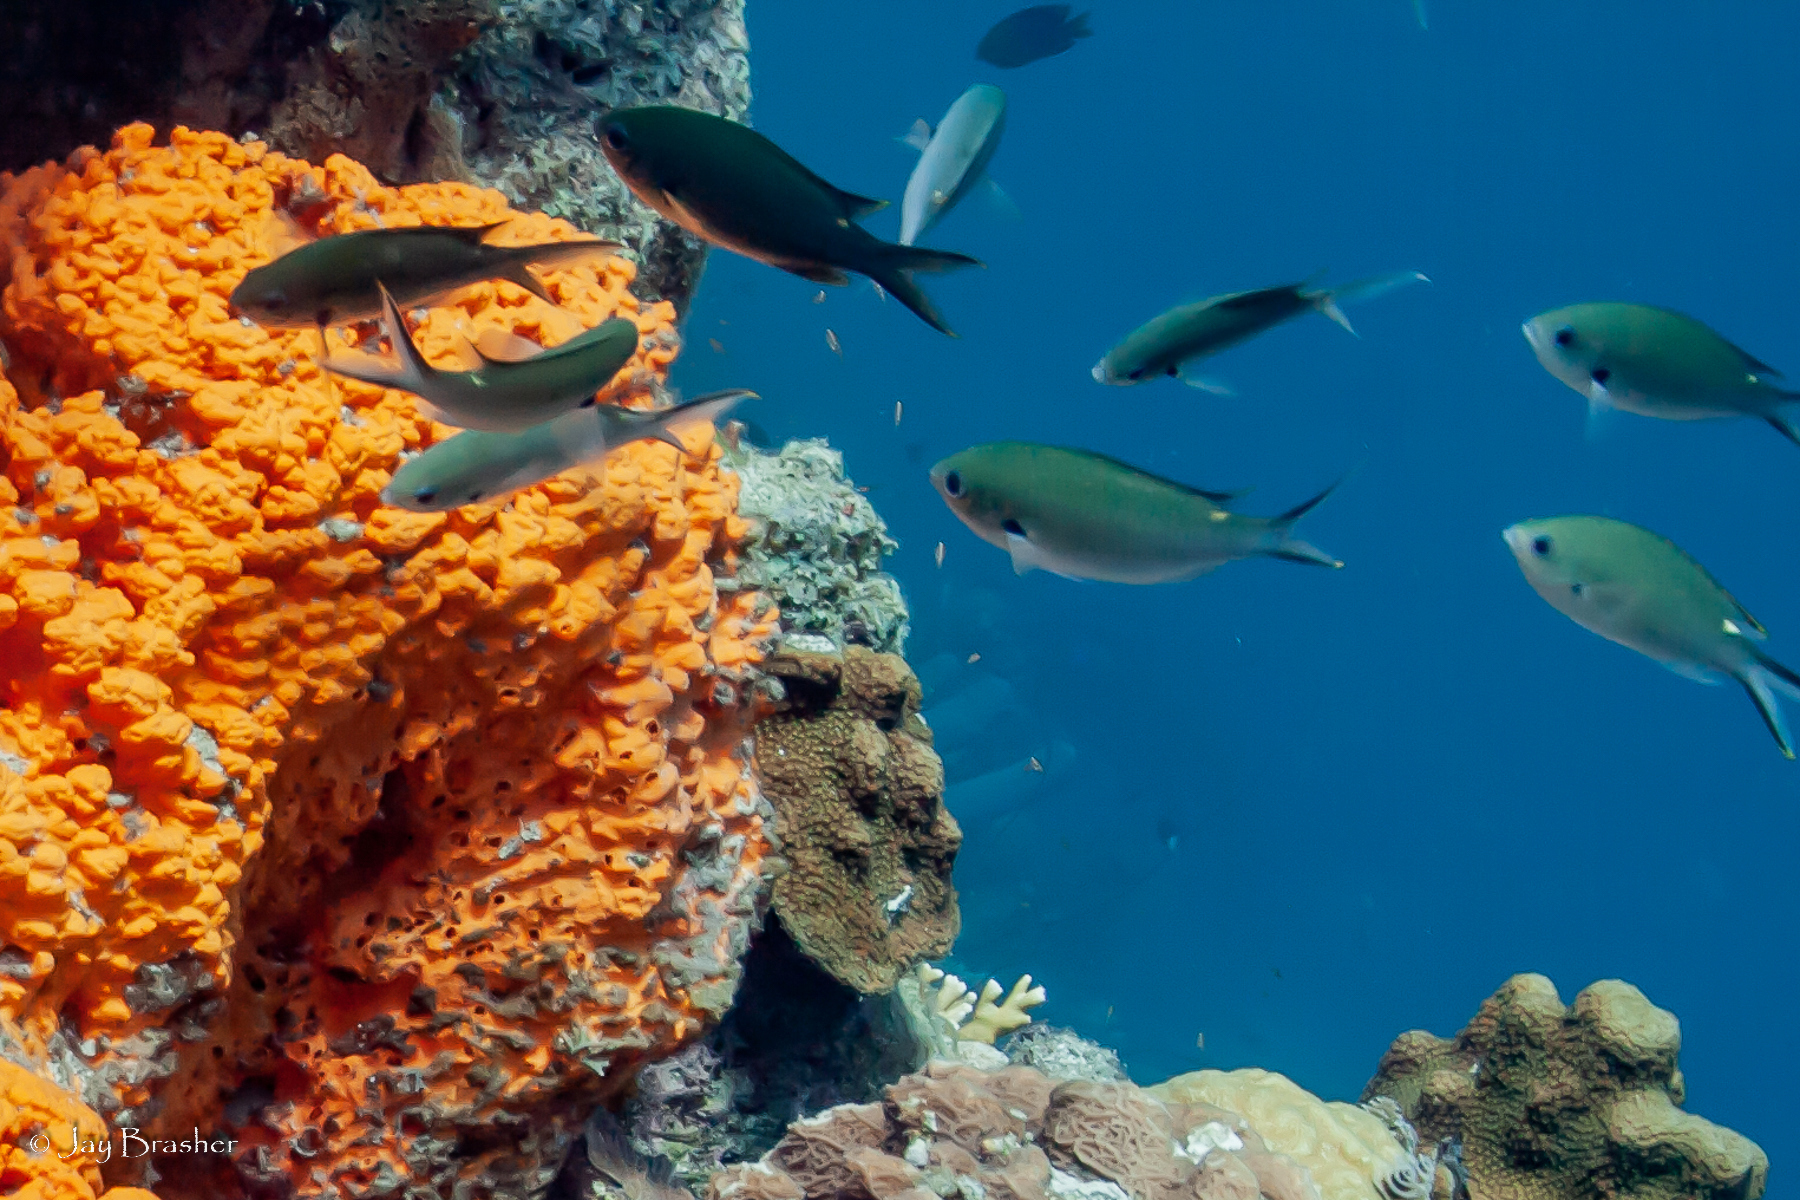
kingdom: Animalia
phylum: Chordata
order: Perciformes
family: Pomacentridae
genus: Chromis
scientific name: Chromis multilineata
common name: Brown chromis
